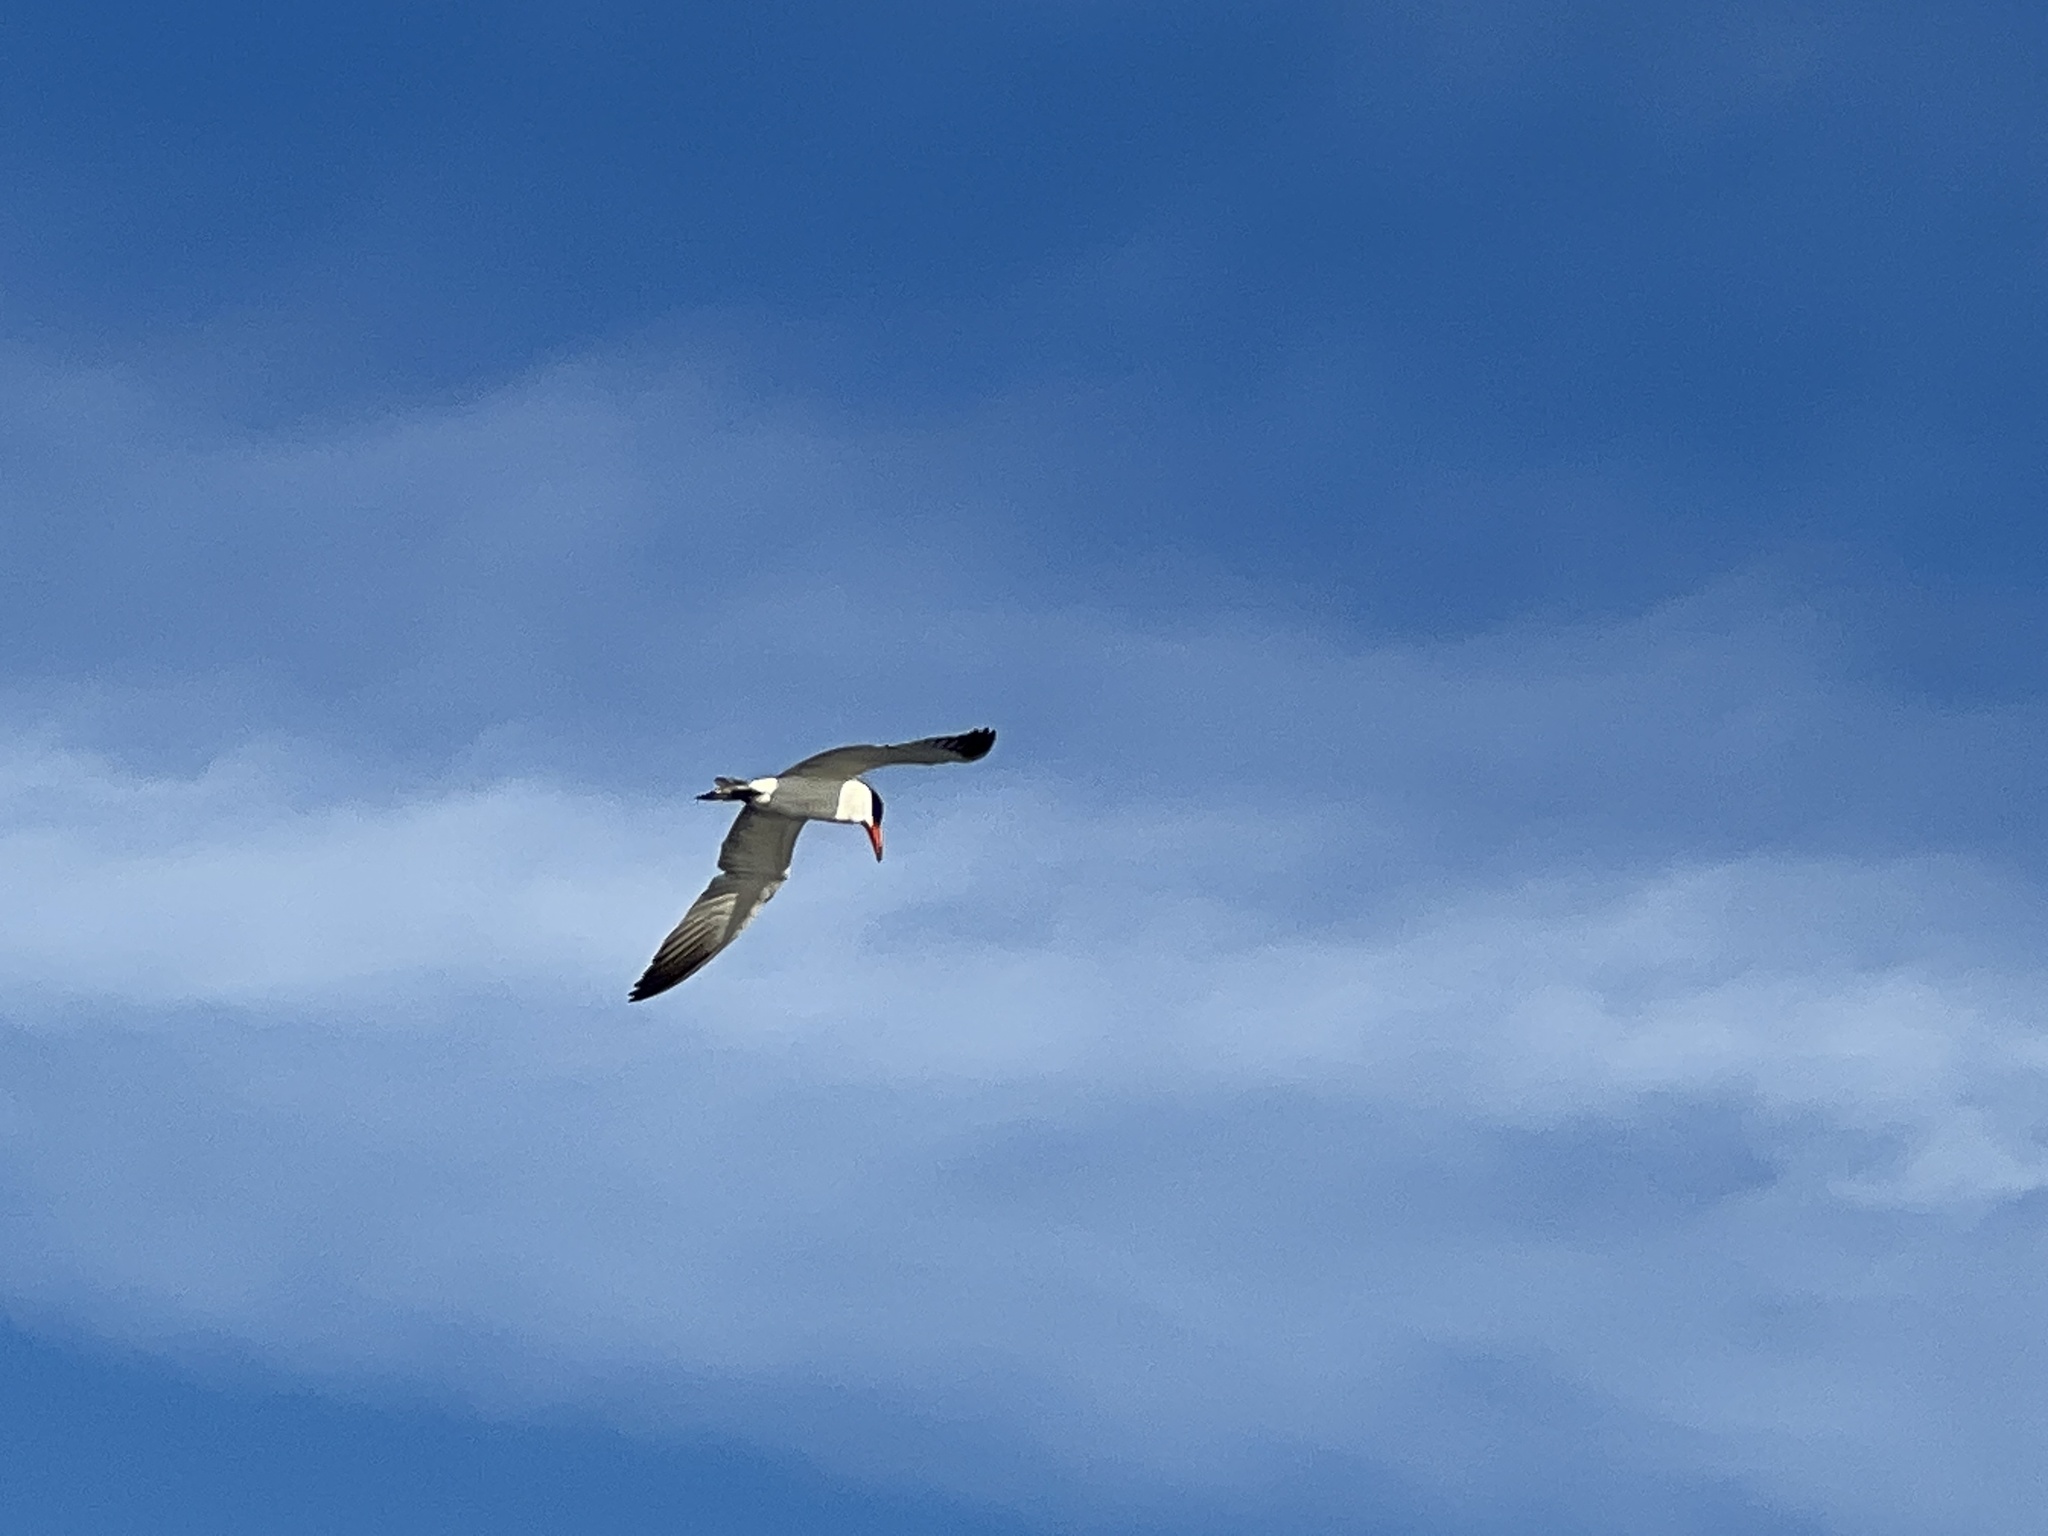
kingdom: Animalia
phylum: Chordata
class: Aves
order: Charadriiformes
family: Laridae
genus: Hydroprogne
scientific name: Hydroprogne caspia
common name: Caspian tern
